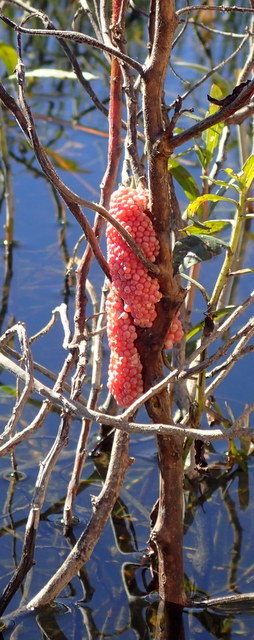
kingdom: Animalia
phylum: Mollusca
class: Gastropoda
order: Architaenioglossa
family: Ampullariidae
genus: Pomacea
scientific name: Pomacea maculata
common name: Giant applesnail
